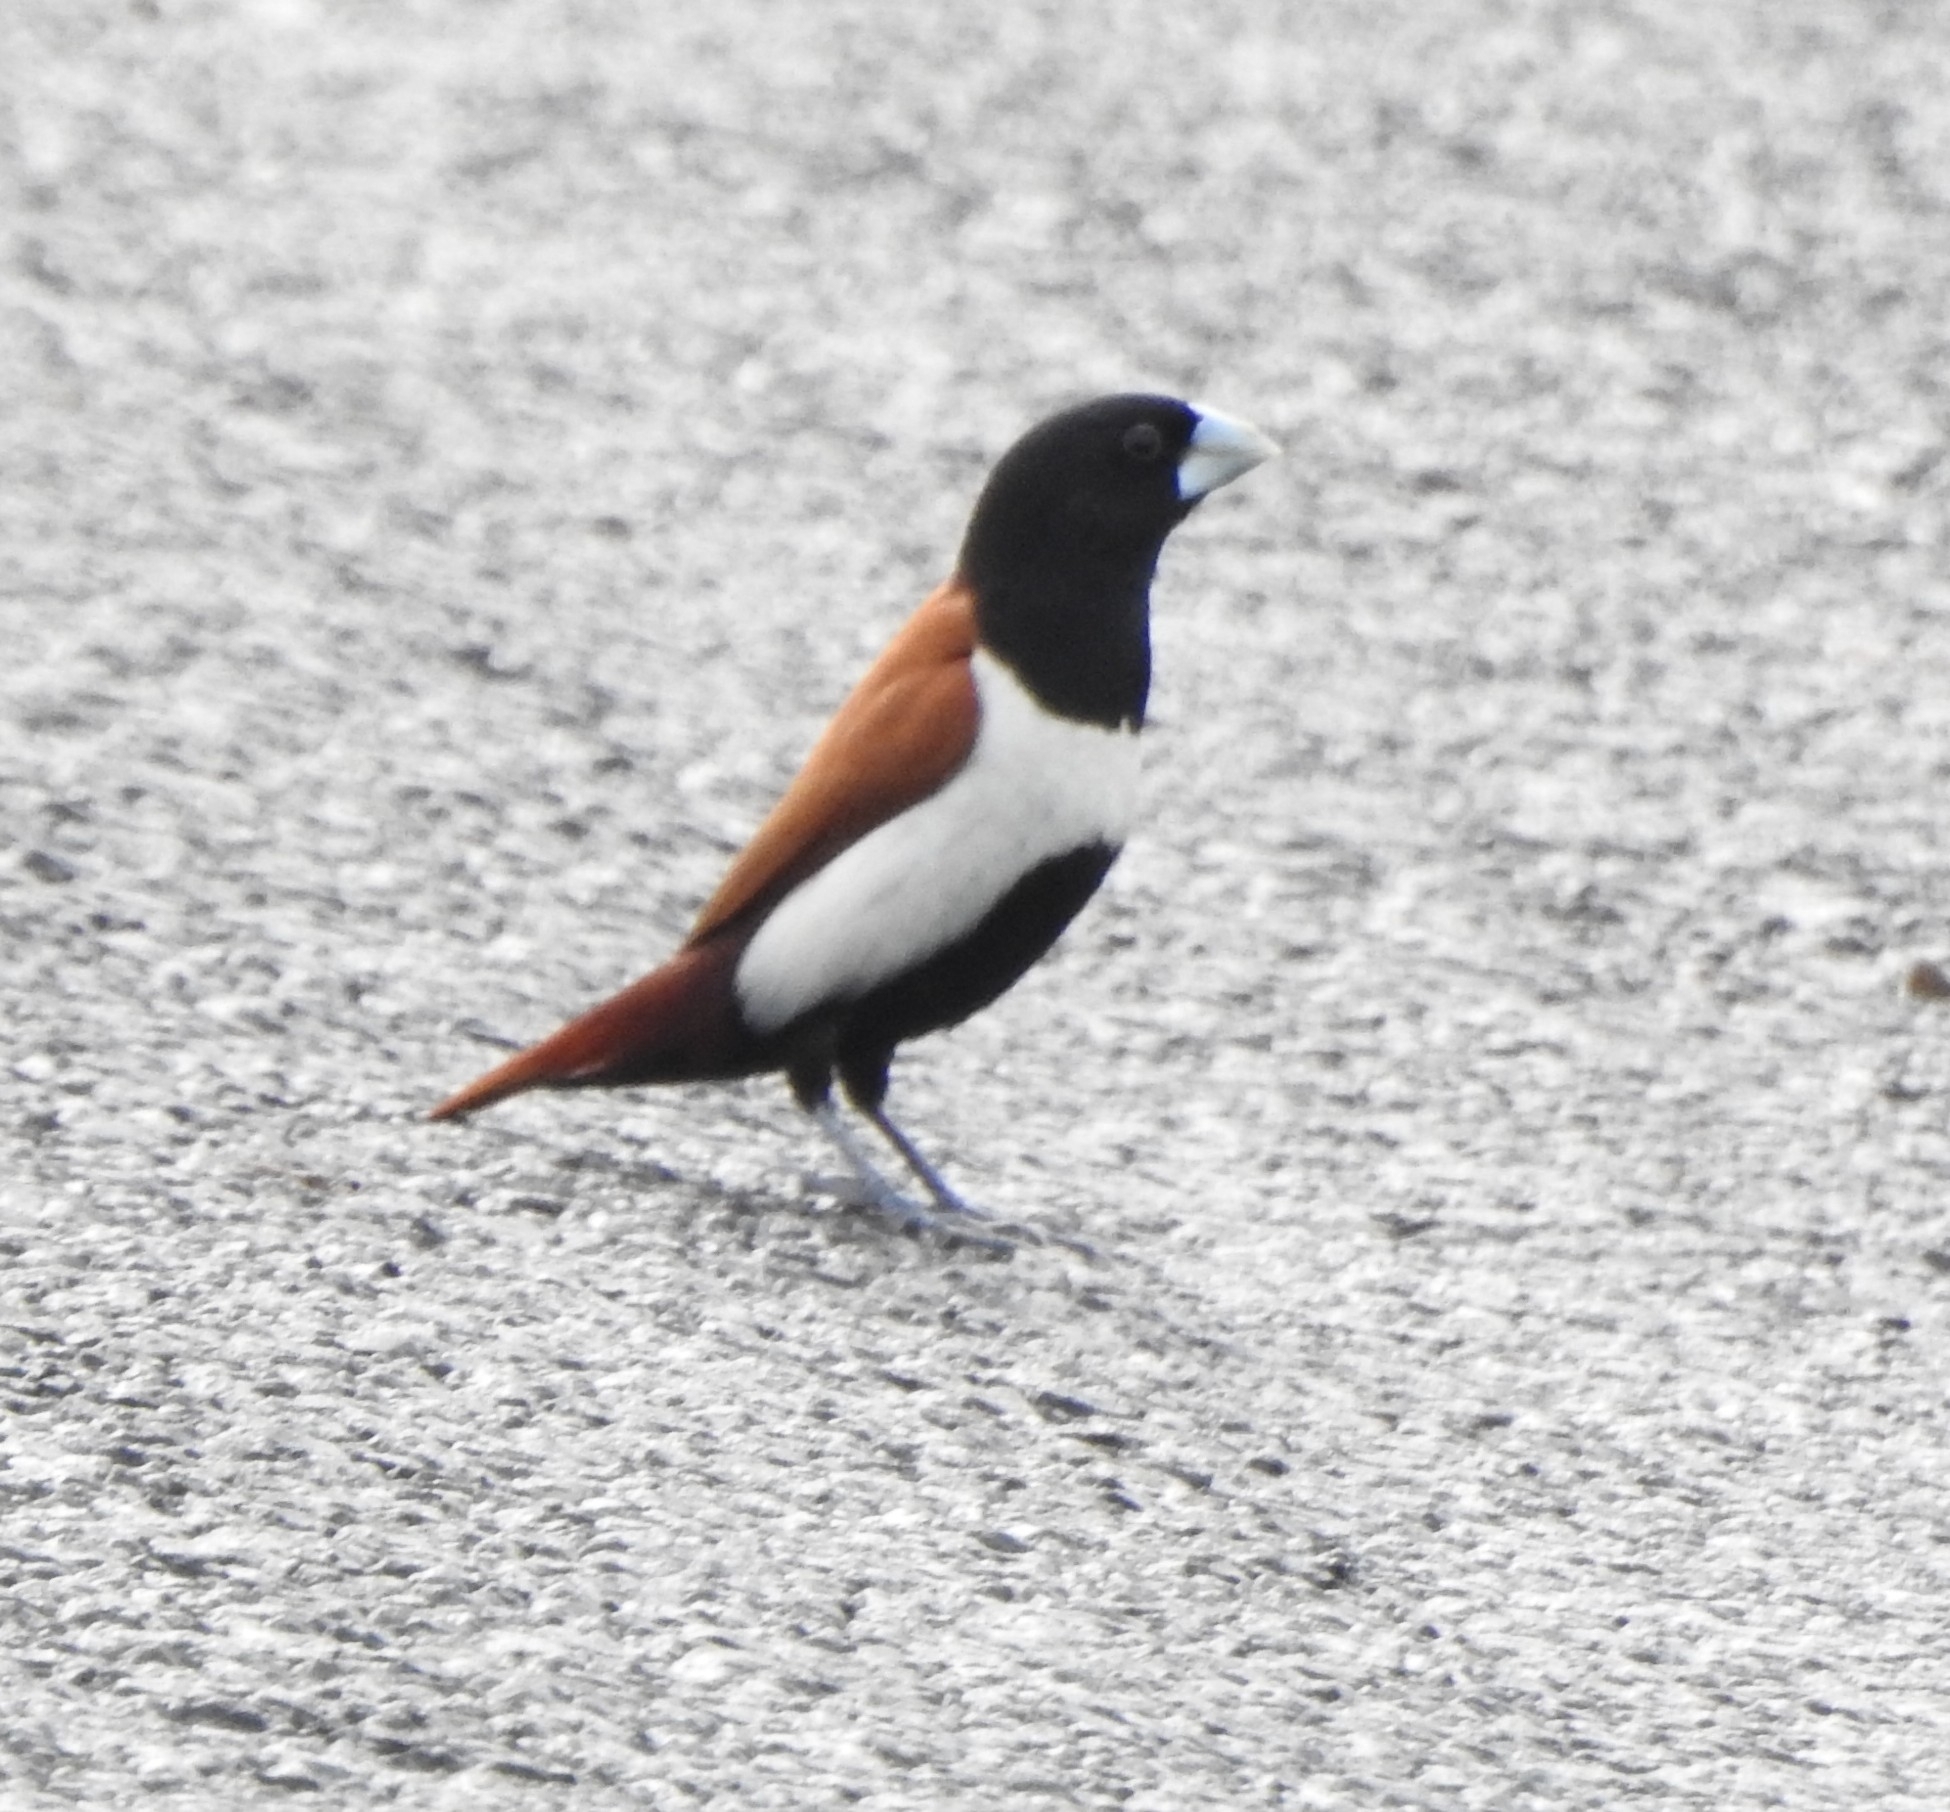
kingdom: Animalia
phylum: Chordata
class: Aves
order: Passeriformes
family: Estrildidae
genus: Lonchura
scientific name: Lonchura malacca
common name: Tricolored munia
